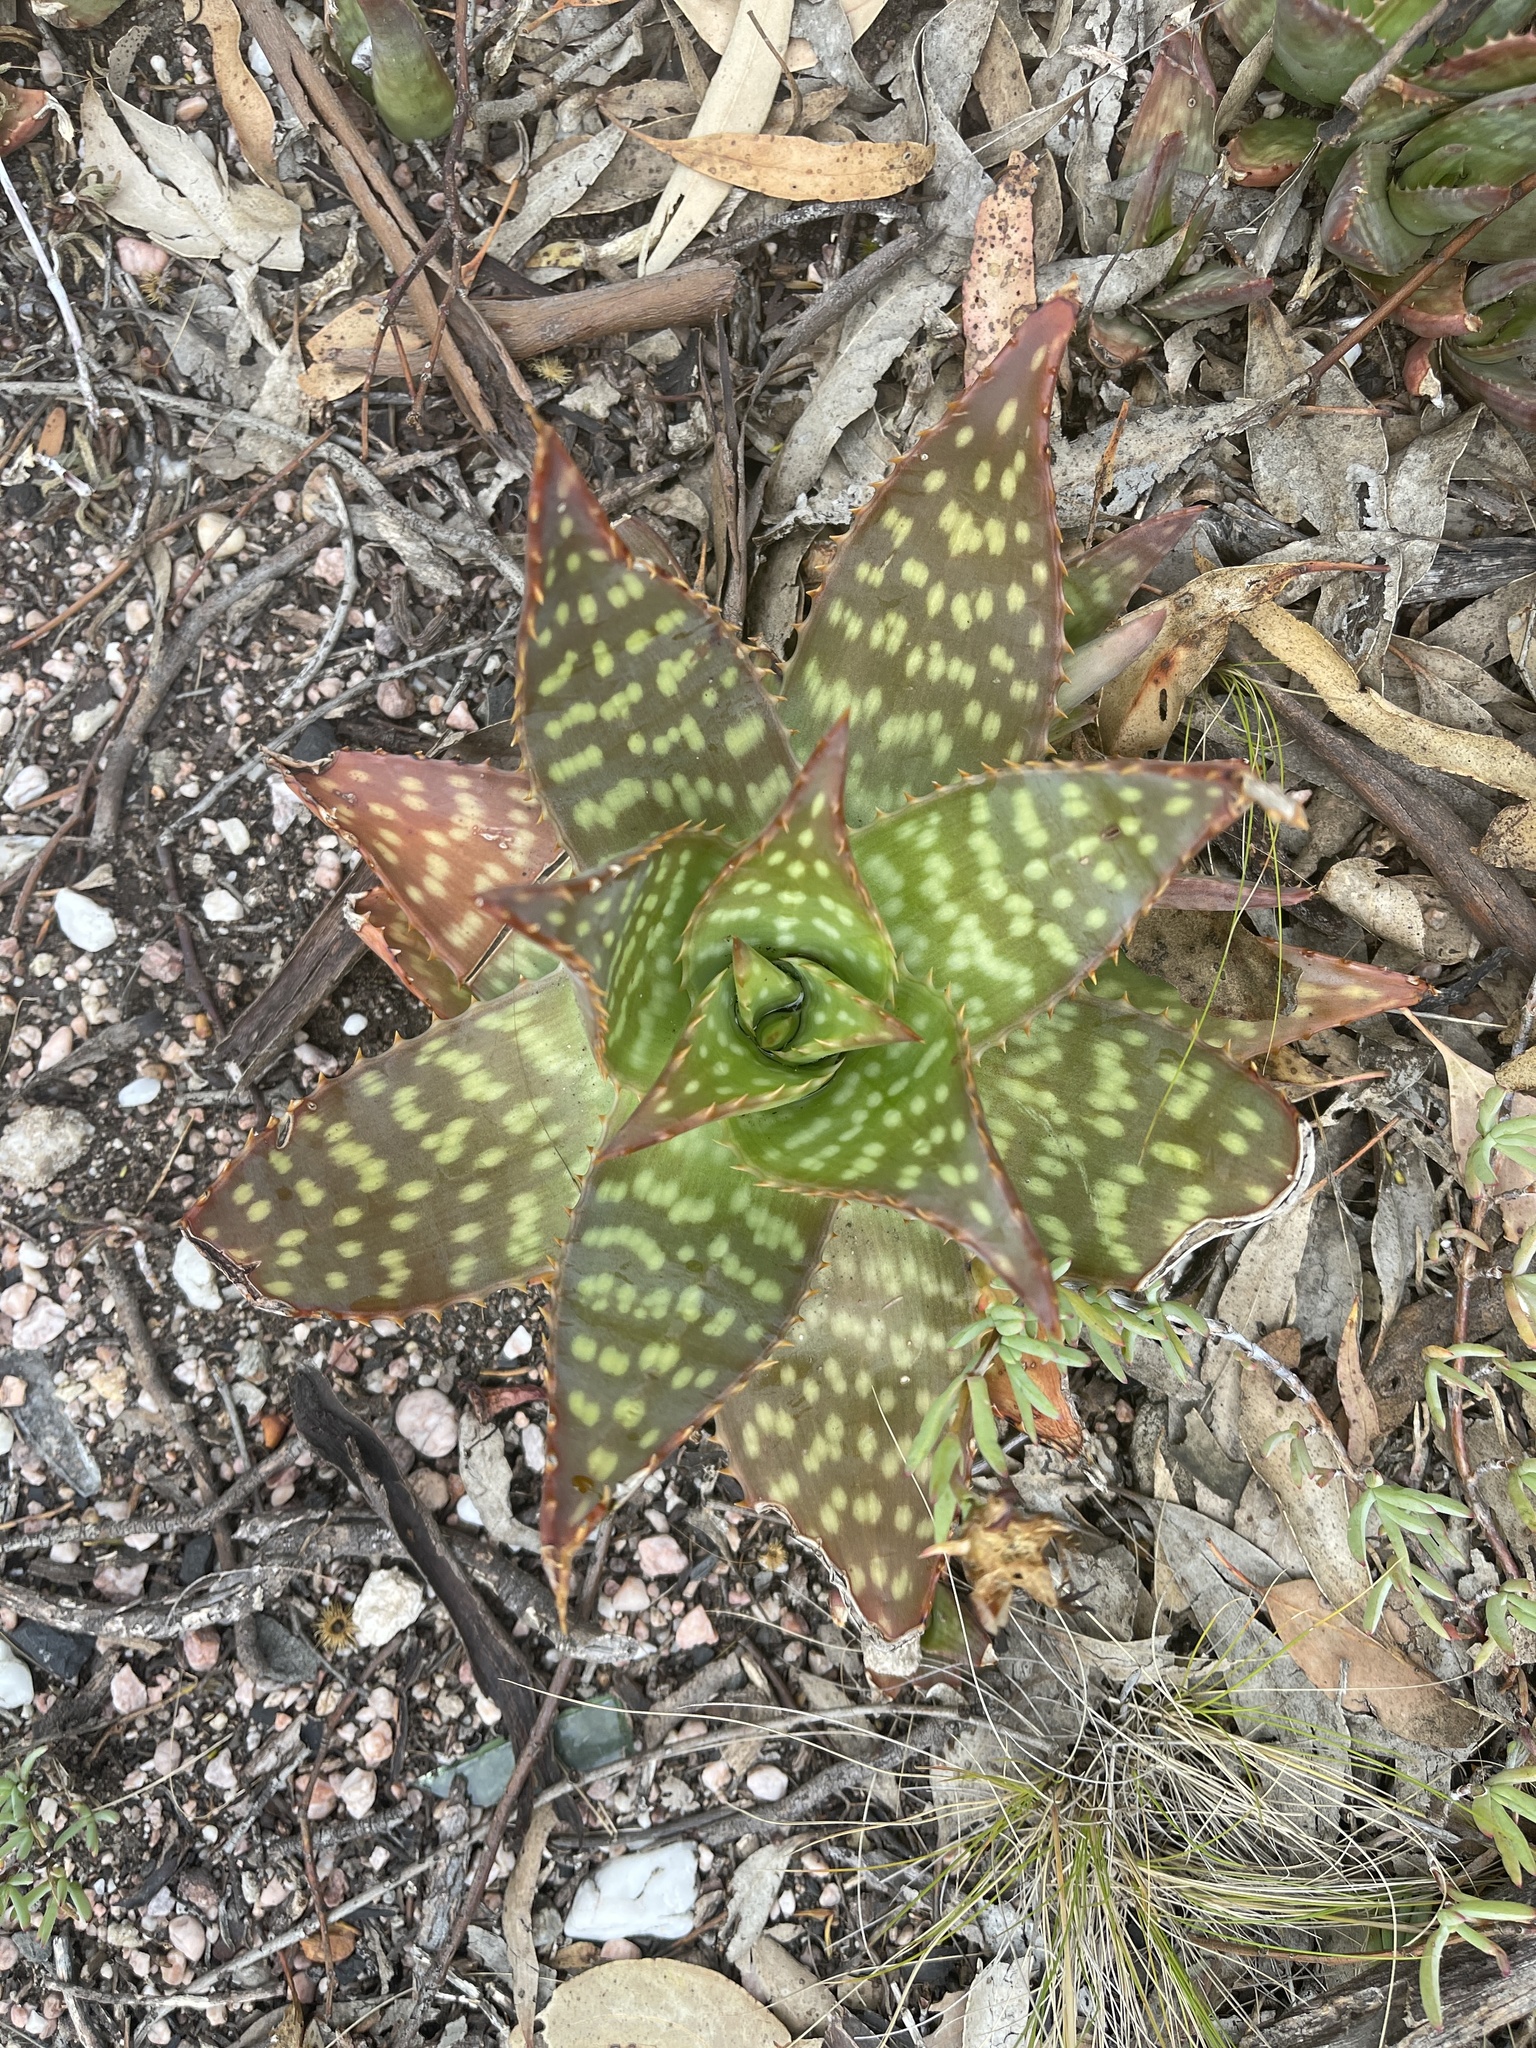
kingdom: Plantae
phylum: Tracheophyta
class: Liliopsida
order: Asparagales
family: Asphodelaceae
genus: Aloe
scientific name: Aloe maculata
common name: Broadleaf aloe
